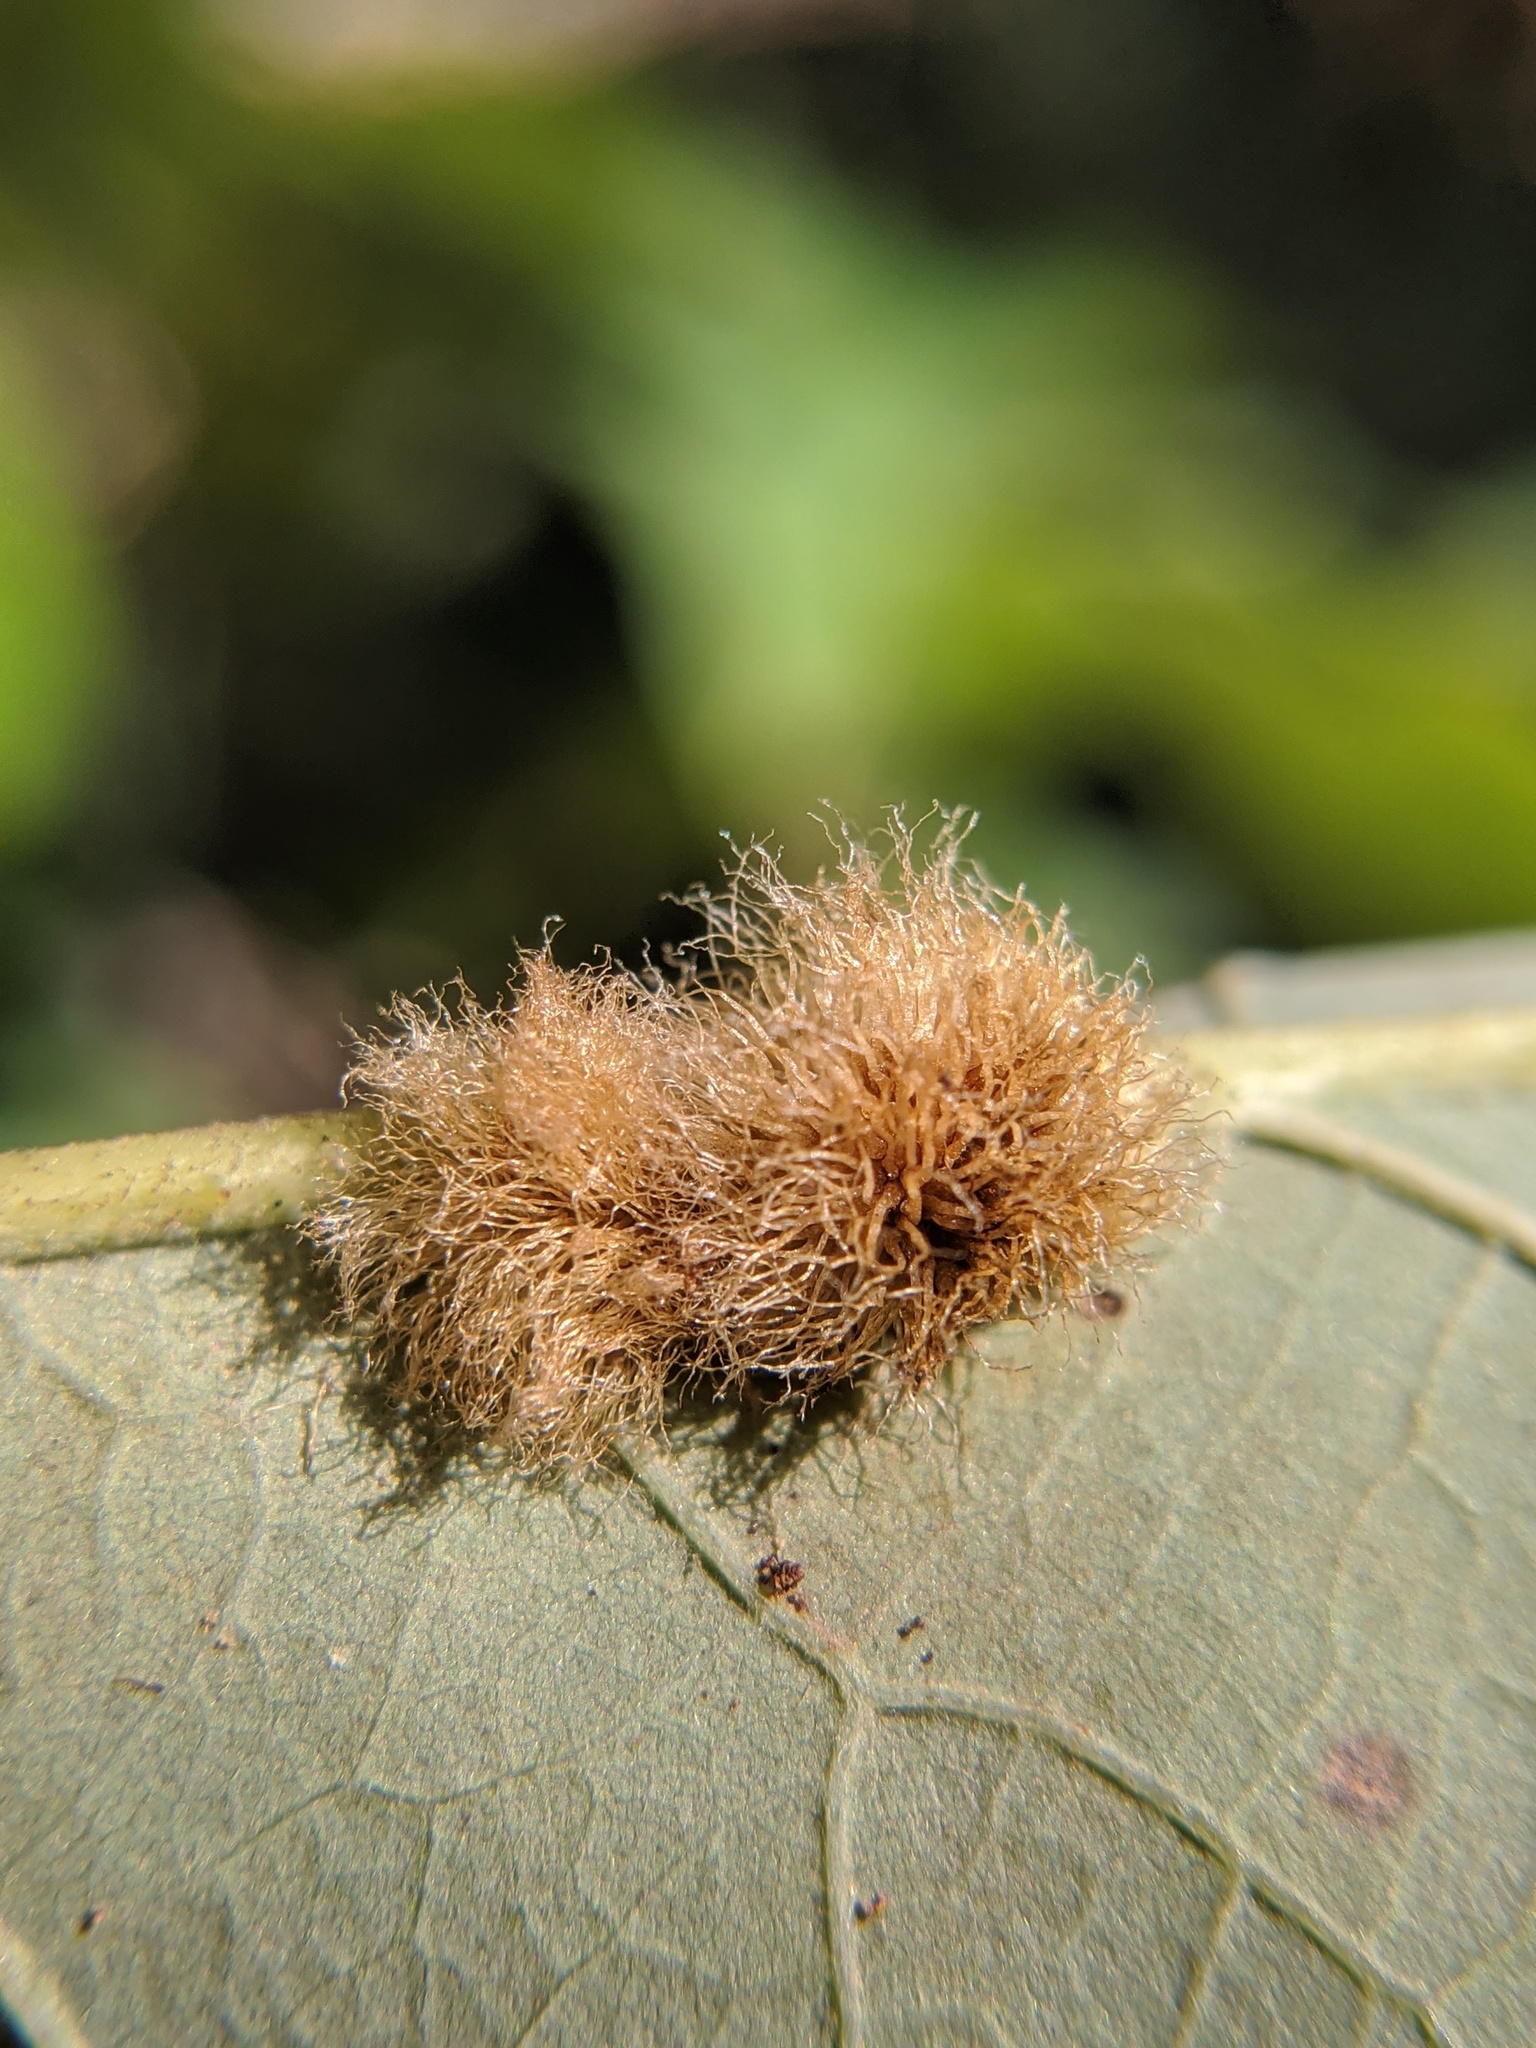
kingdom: Animalia
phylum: Arthropoda
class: Insecta
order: Hymenoptera
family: Cynipidae
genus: Acraspis
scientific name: Acraspis villosa
